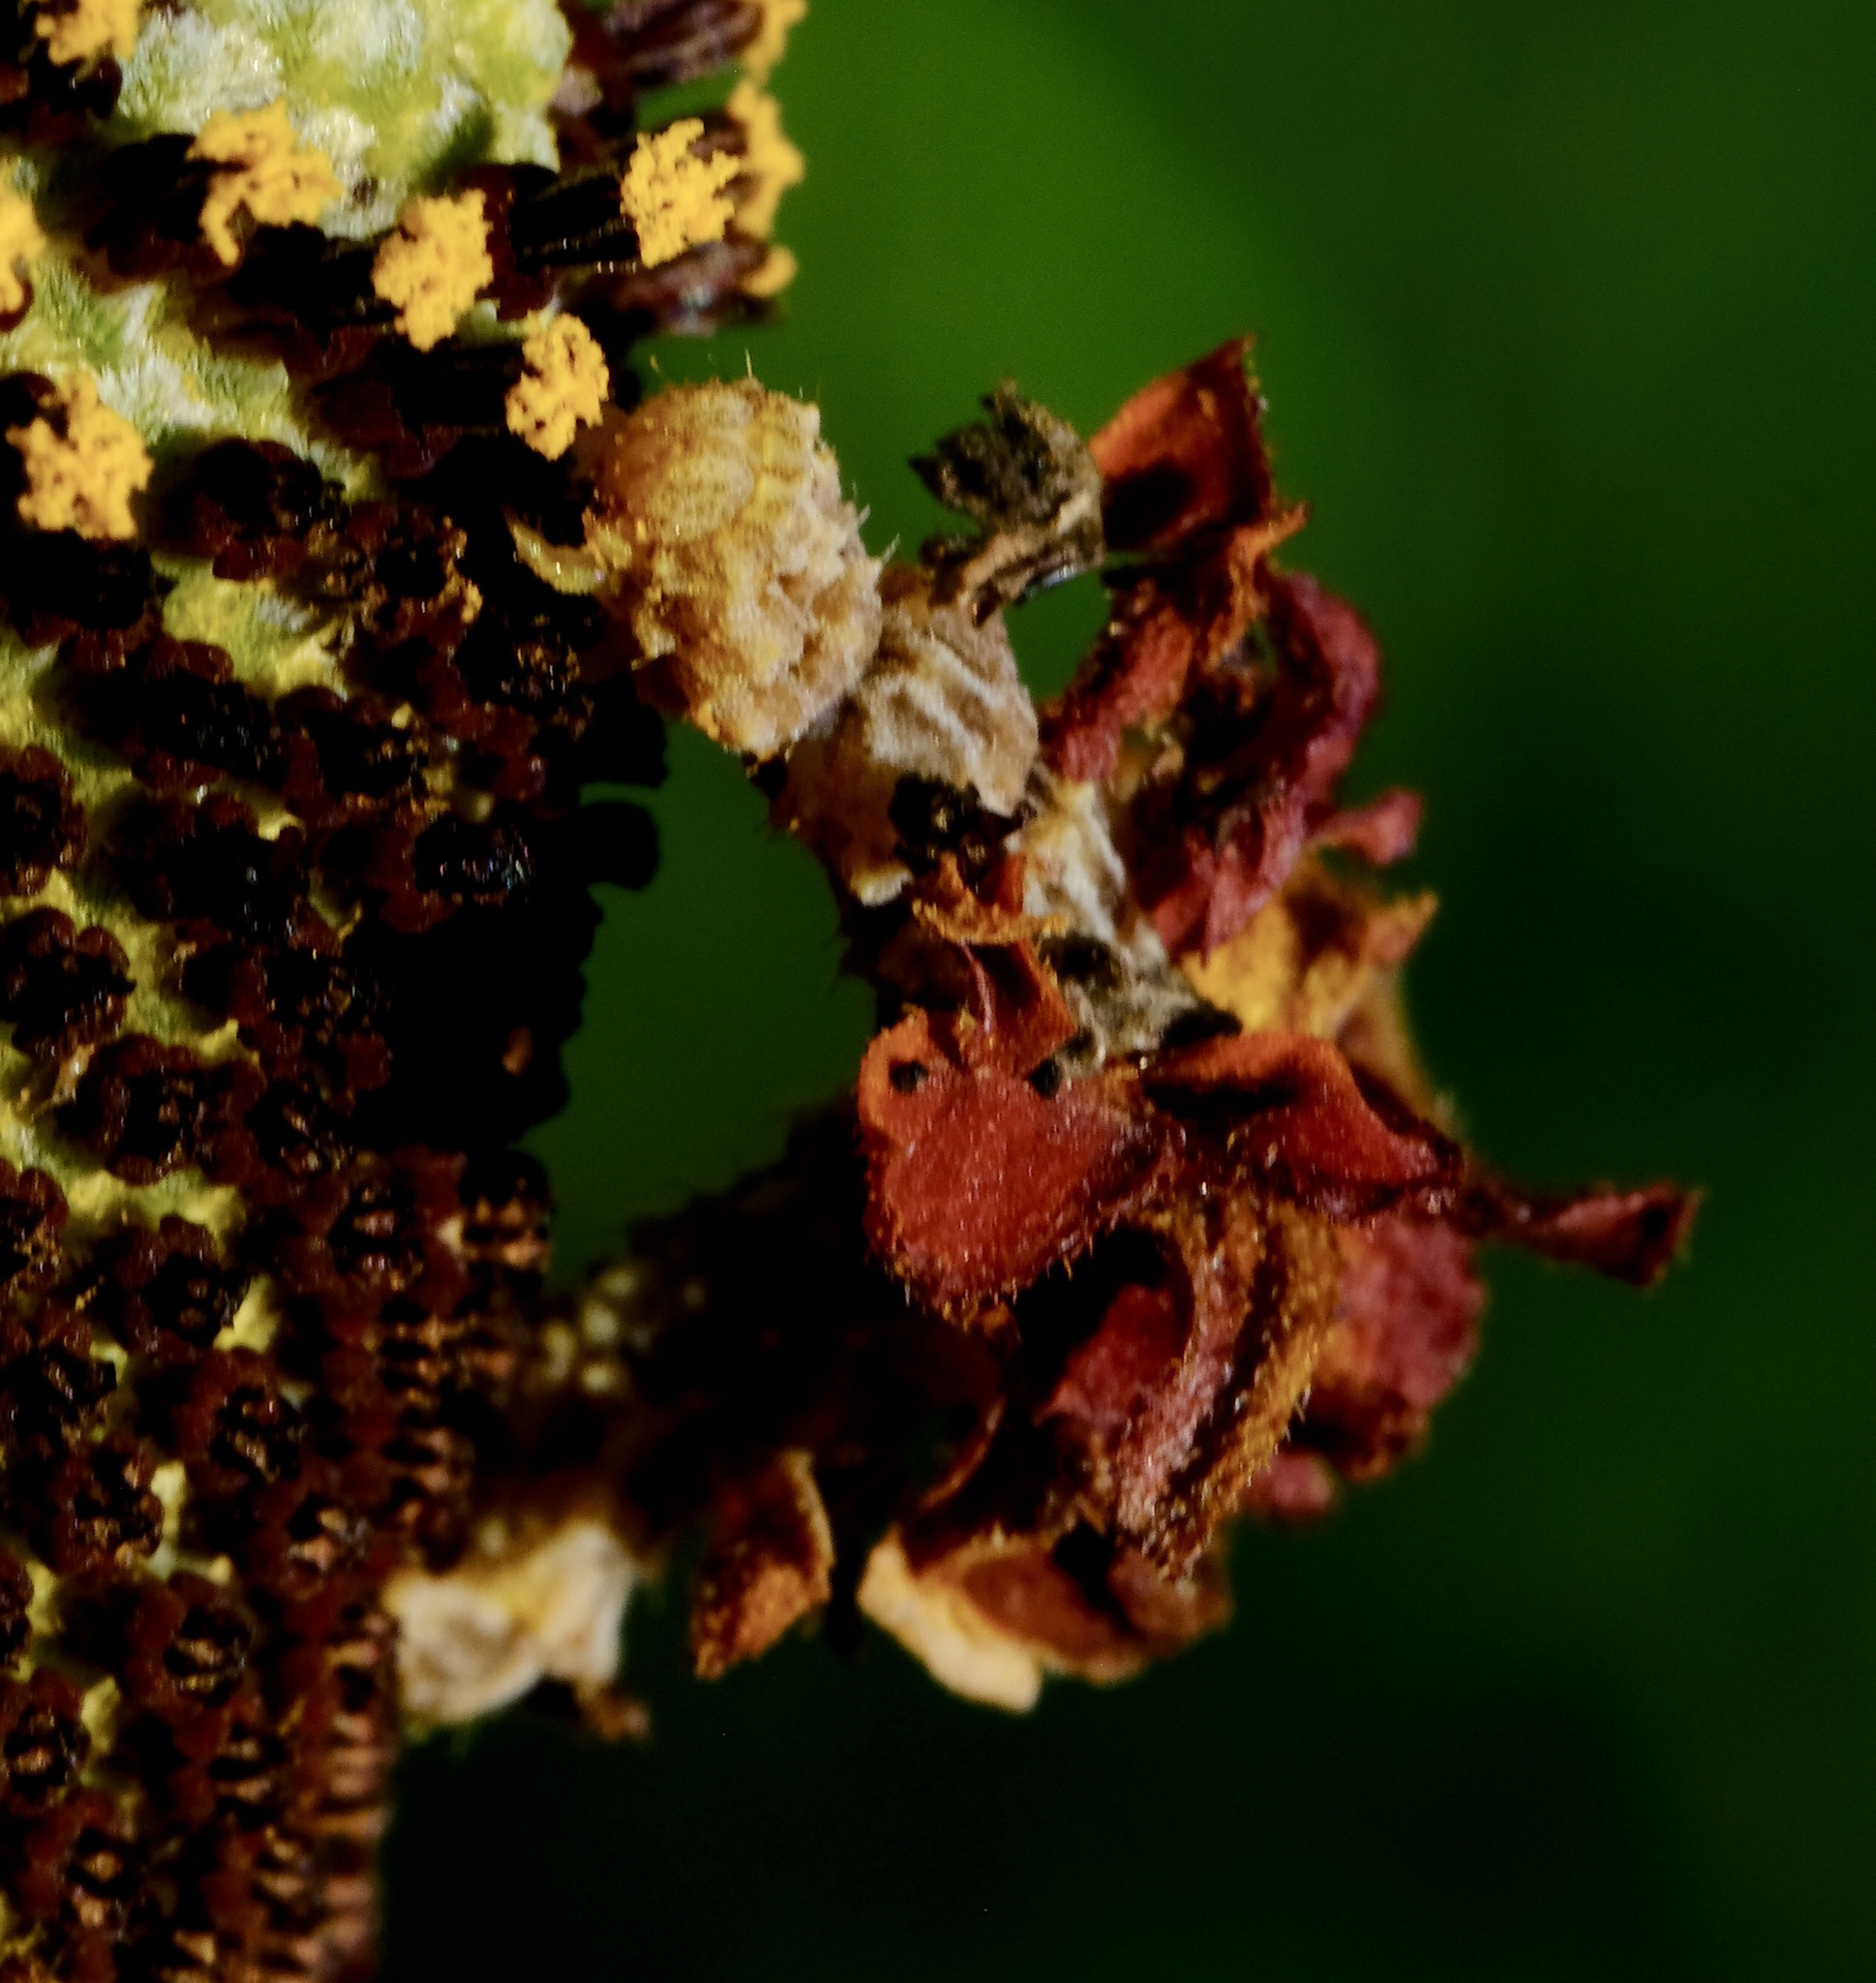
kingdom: Animalia
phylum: Arthropoda
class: Insecta
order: Lepidoptera
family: Geometridae
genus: Synchlora
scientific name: Synchlora
